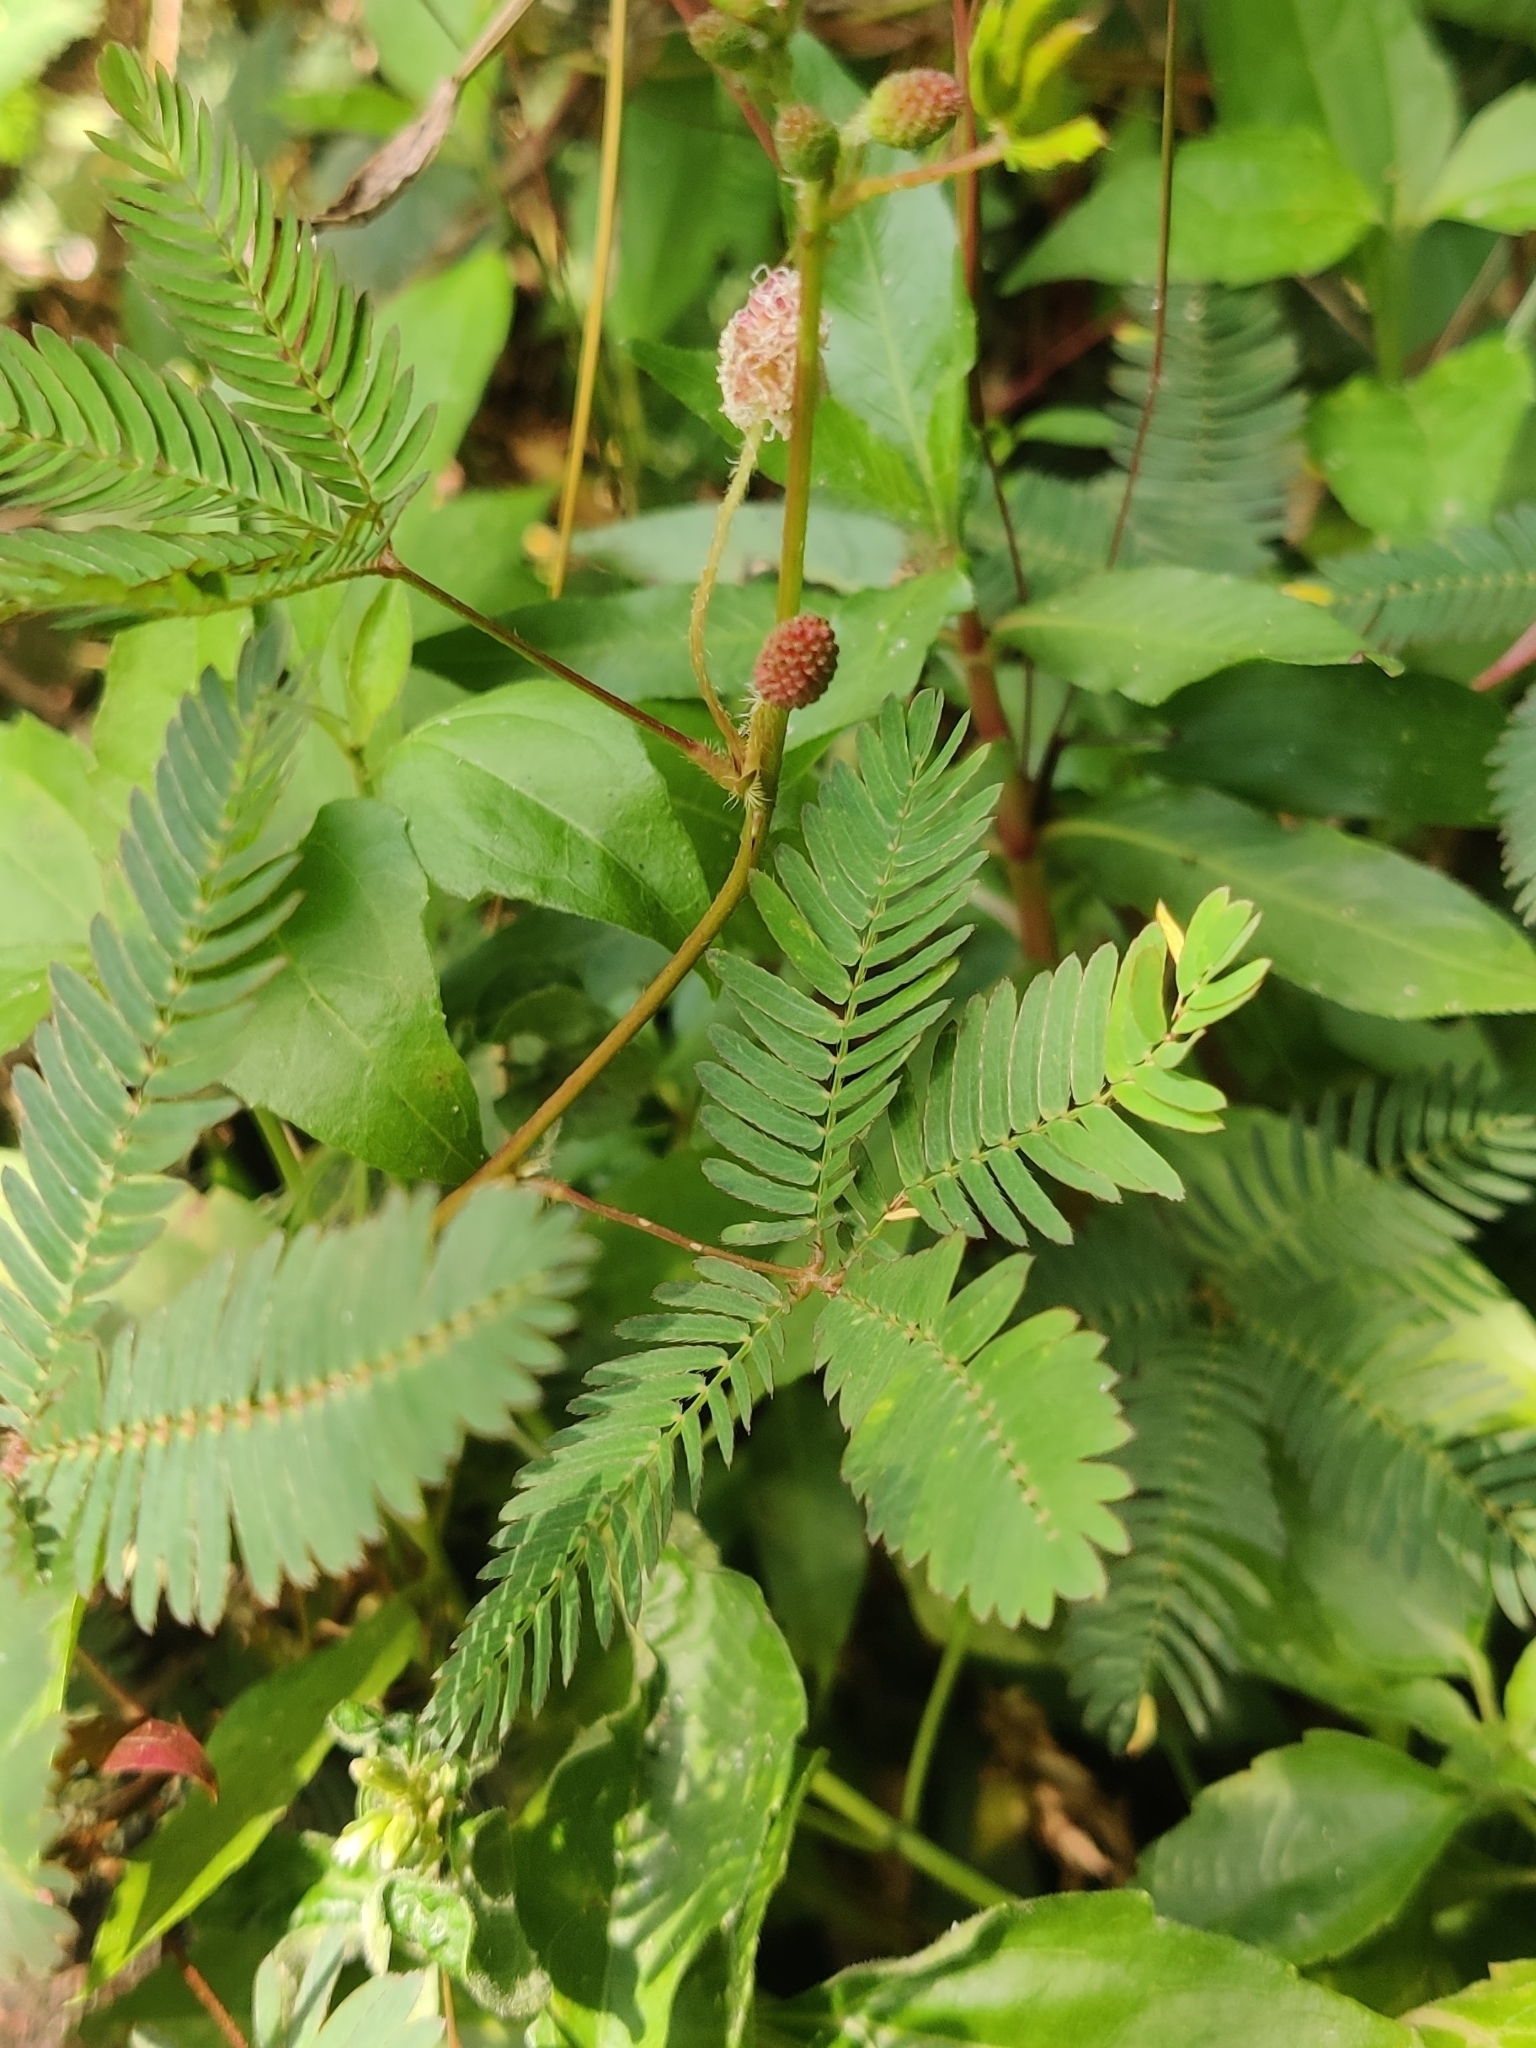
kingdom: Plantae
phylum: Tracheophyta
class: Magnoliopsida
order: Fabales
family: Fabaceae
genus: Mimosa
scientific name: Mimosa pudica
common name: Sensitive plant
